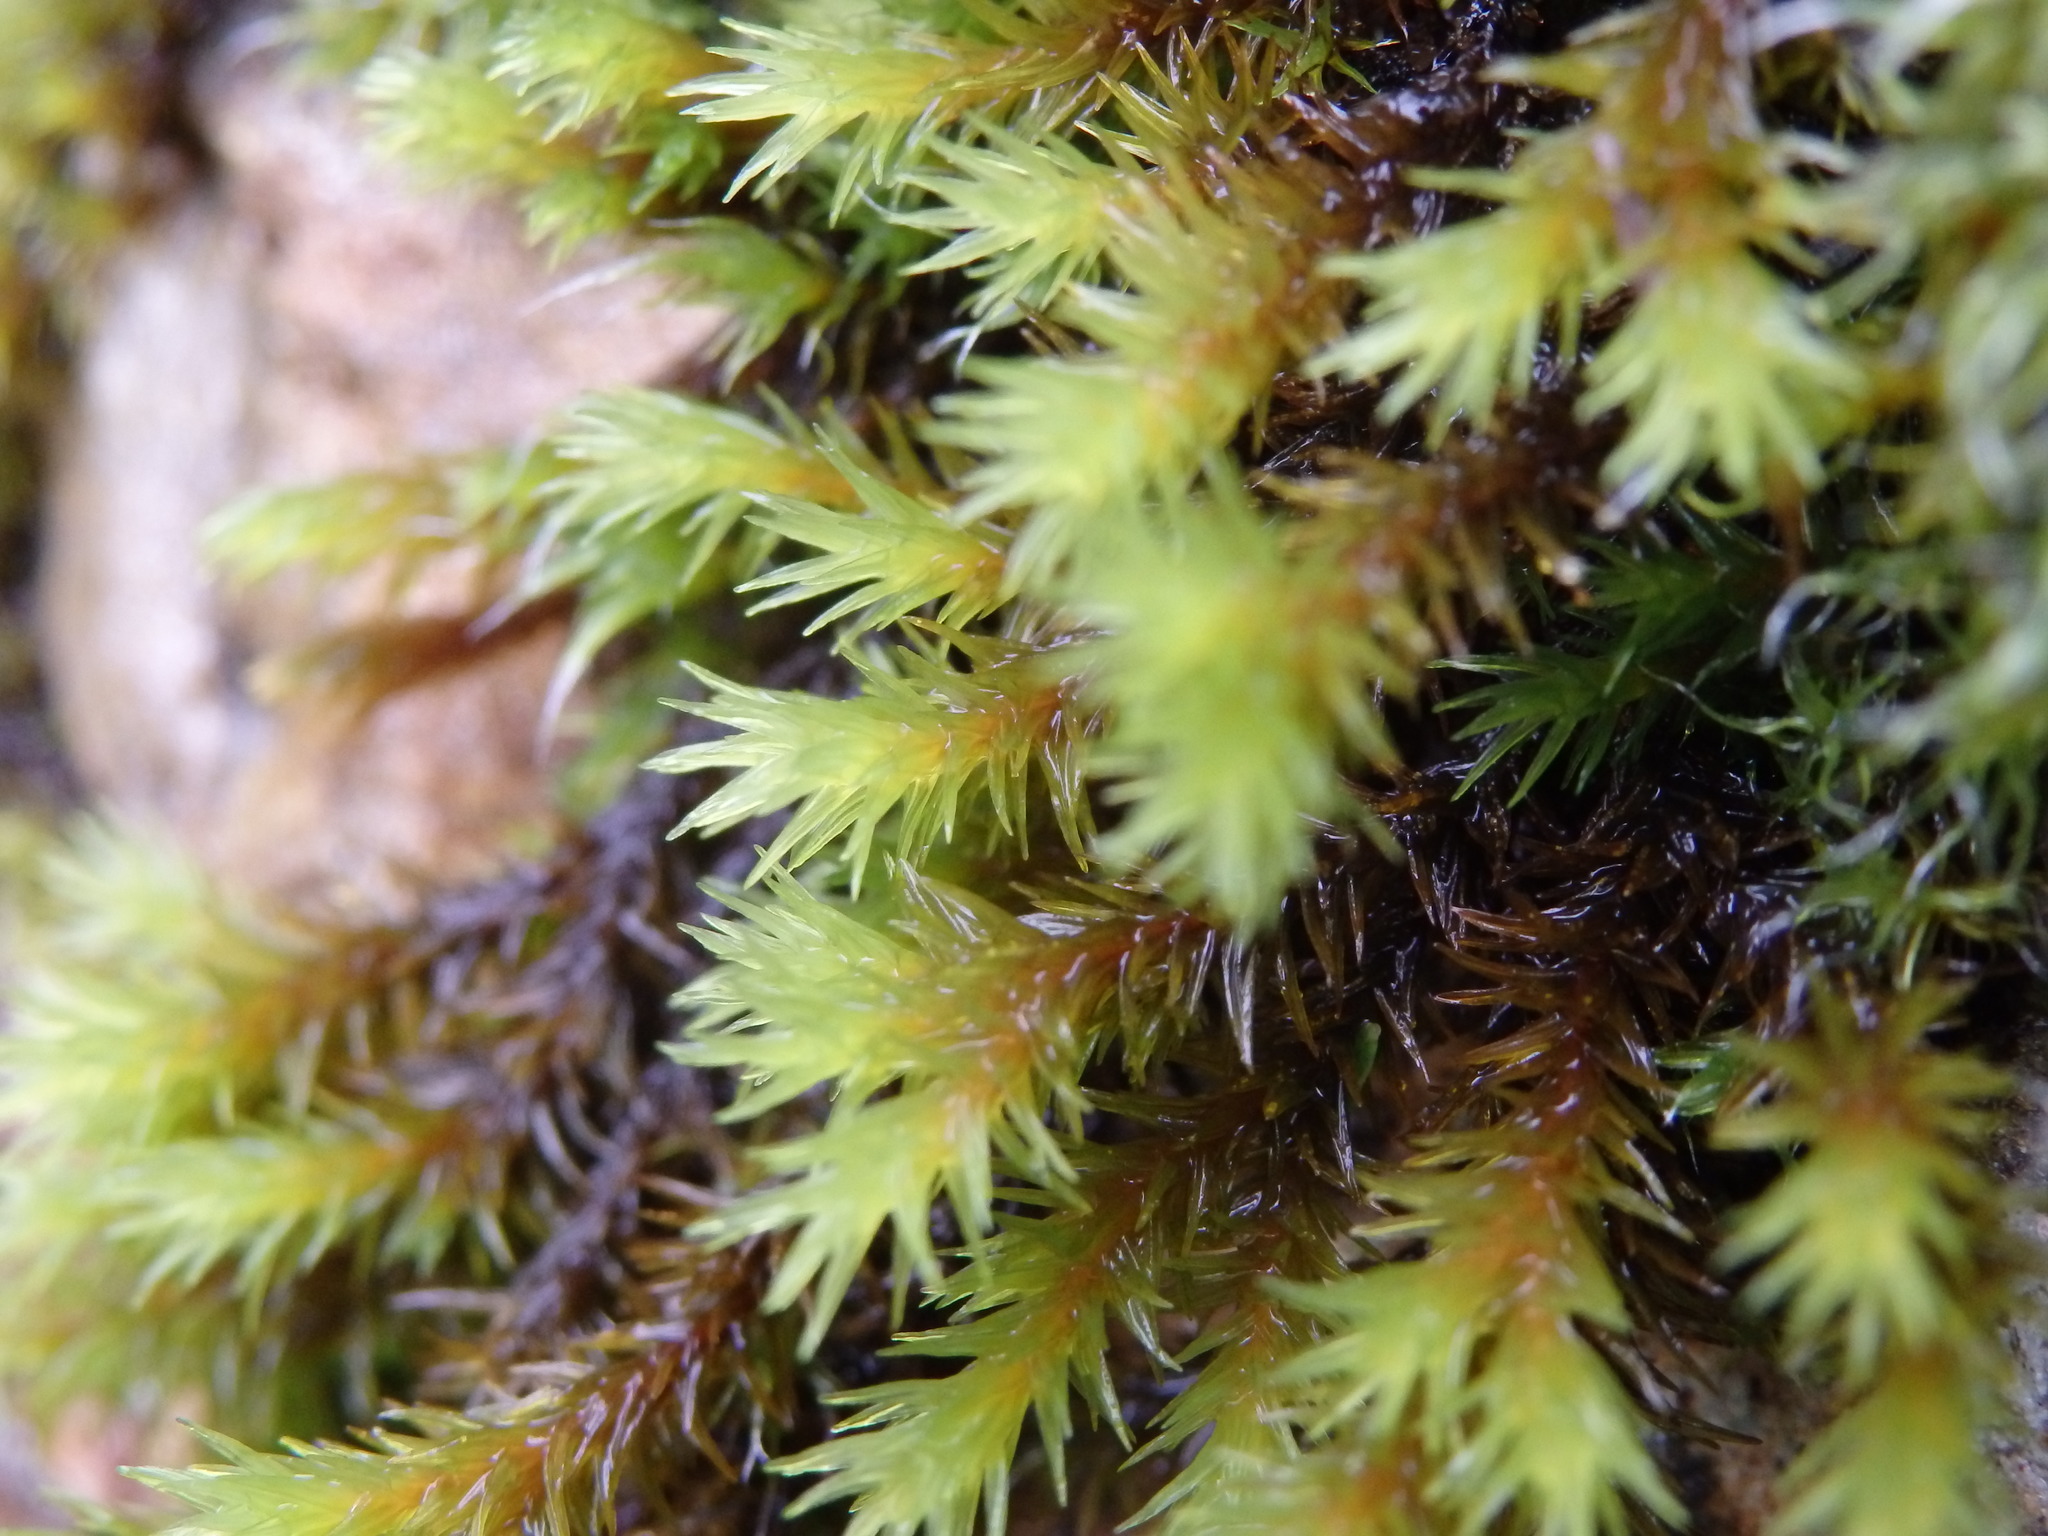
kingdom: Plantae
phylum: Bryophyta
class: Bryopsida
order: Grimmiales
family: Grimmiaceae
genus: Codriophorus
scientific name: Codriophorus acicularis
